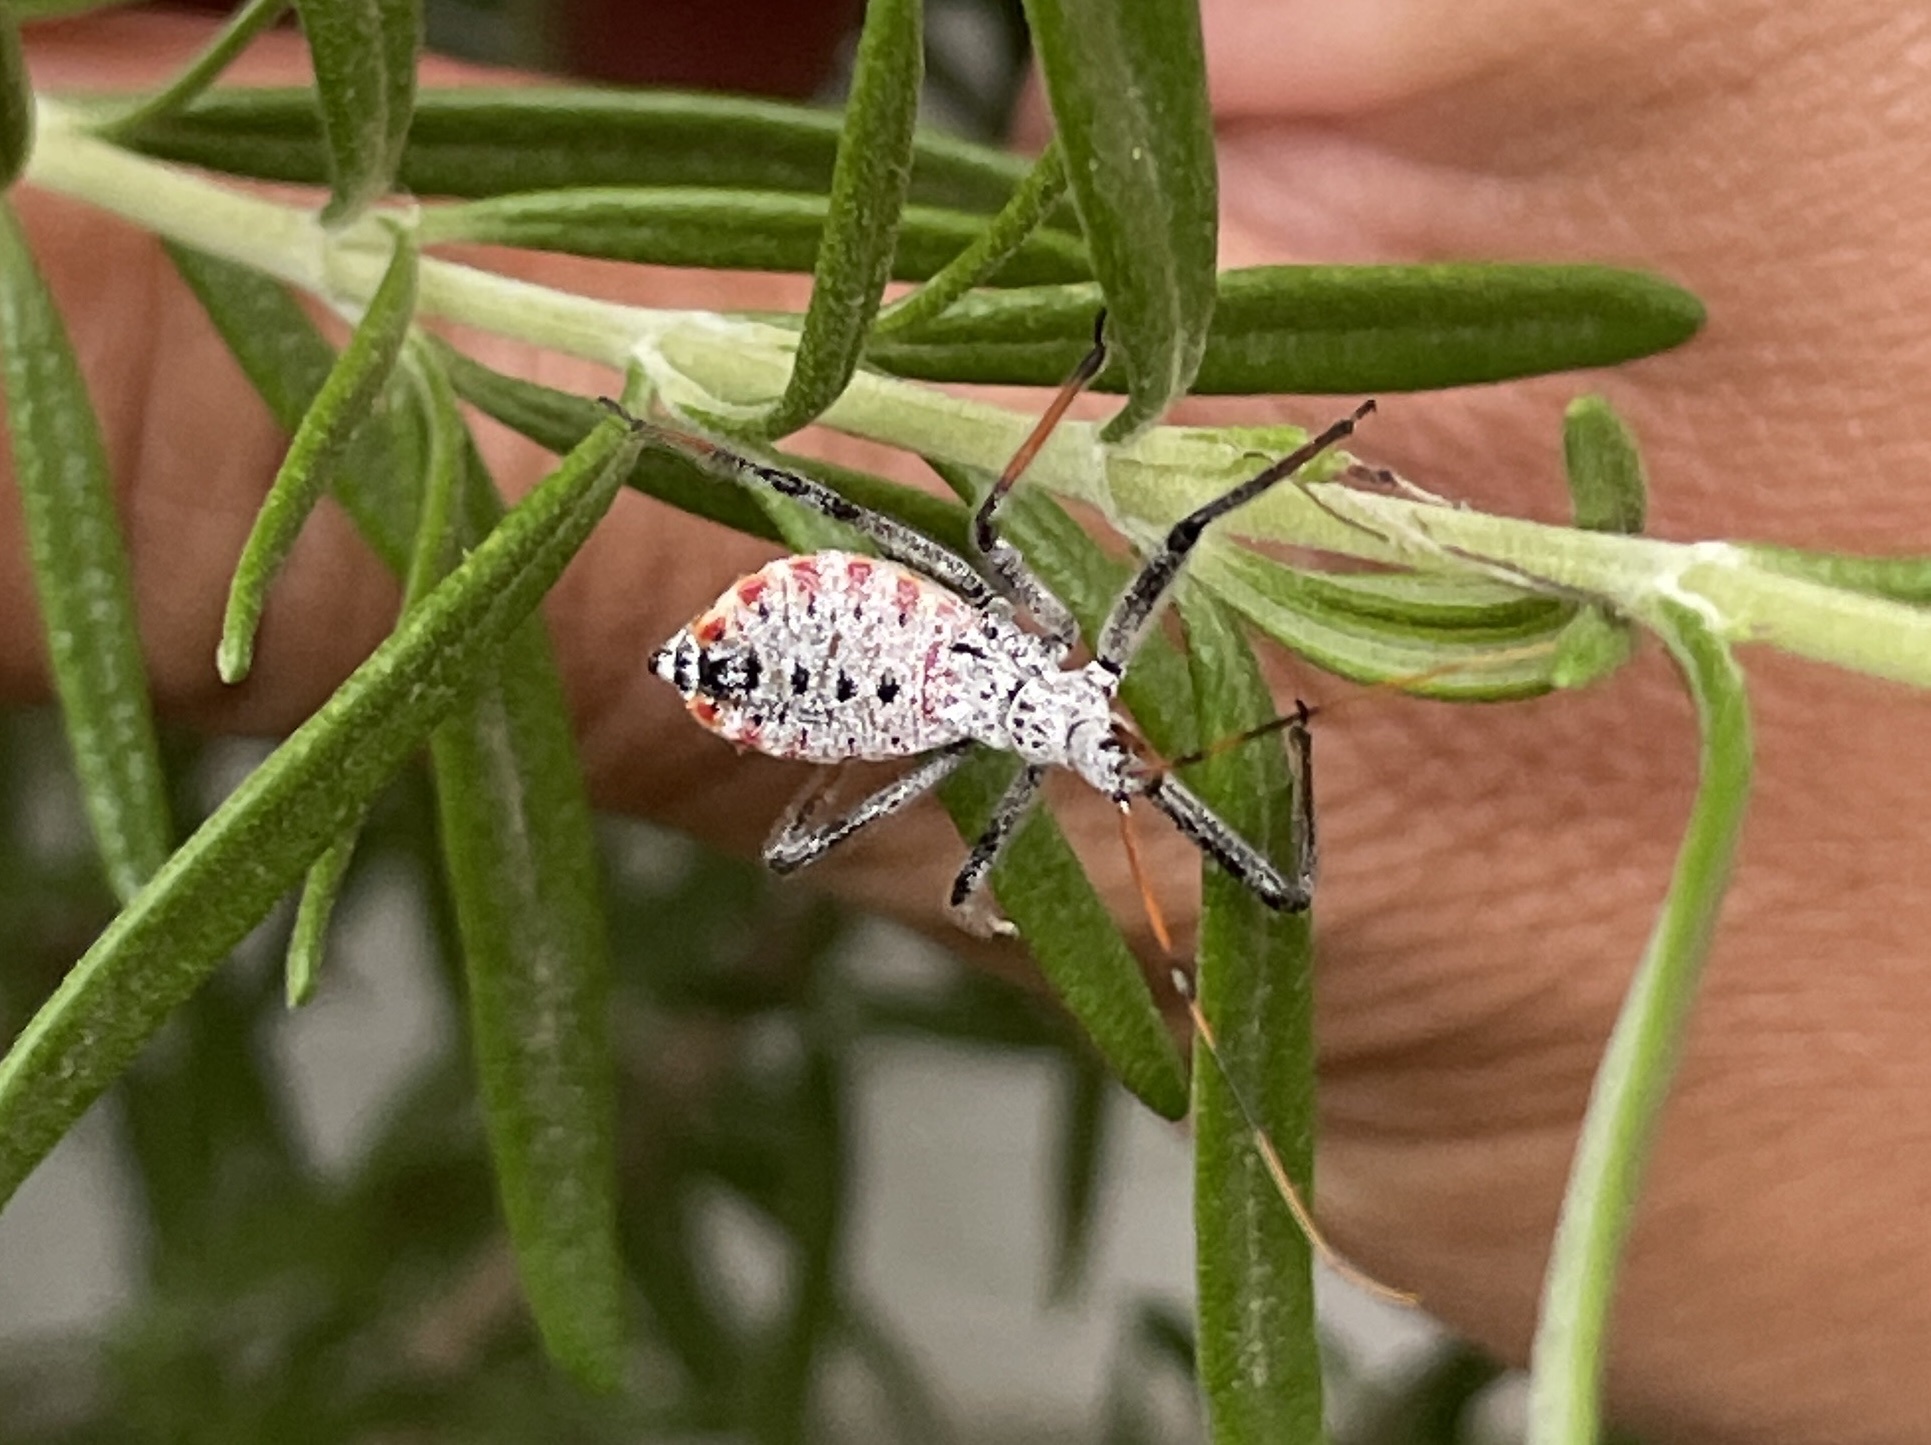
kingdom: Animalia
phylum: Arthropoda
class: Insecta
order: Hemiptera
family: Reduviidae
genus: Arilus
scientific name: Arilus cristatus
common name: North american wheel bug
